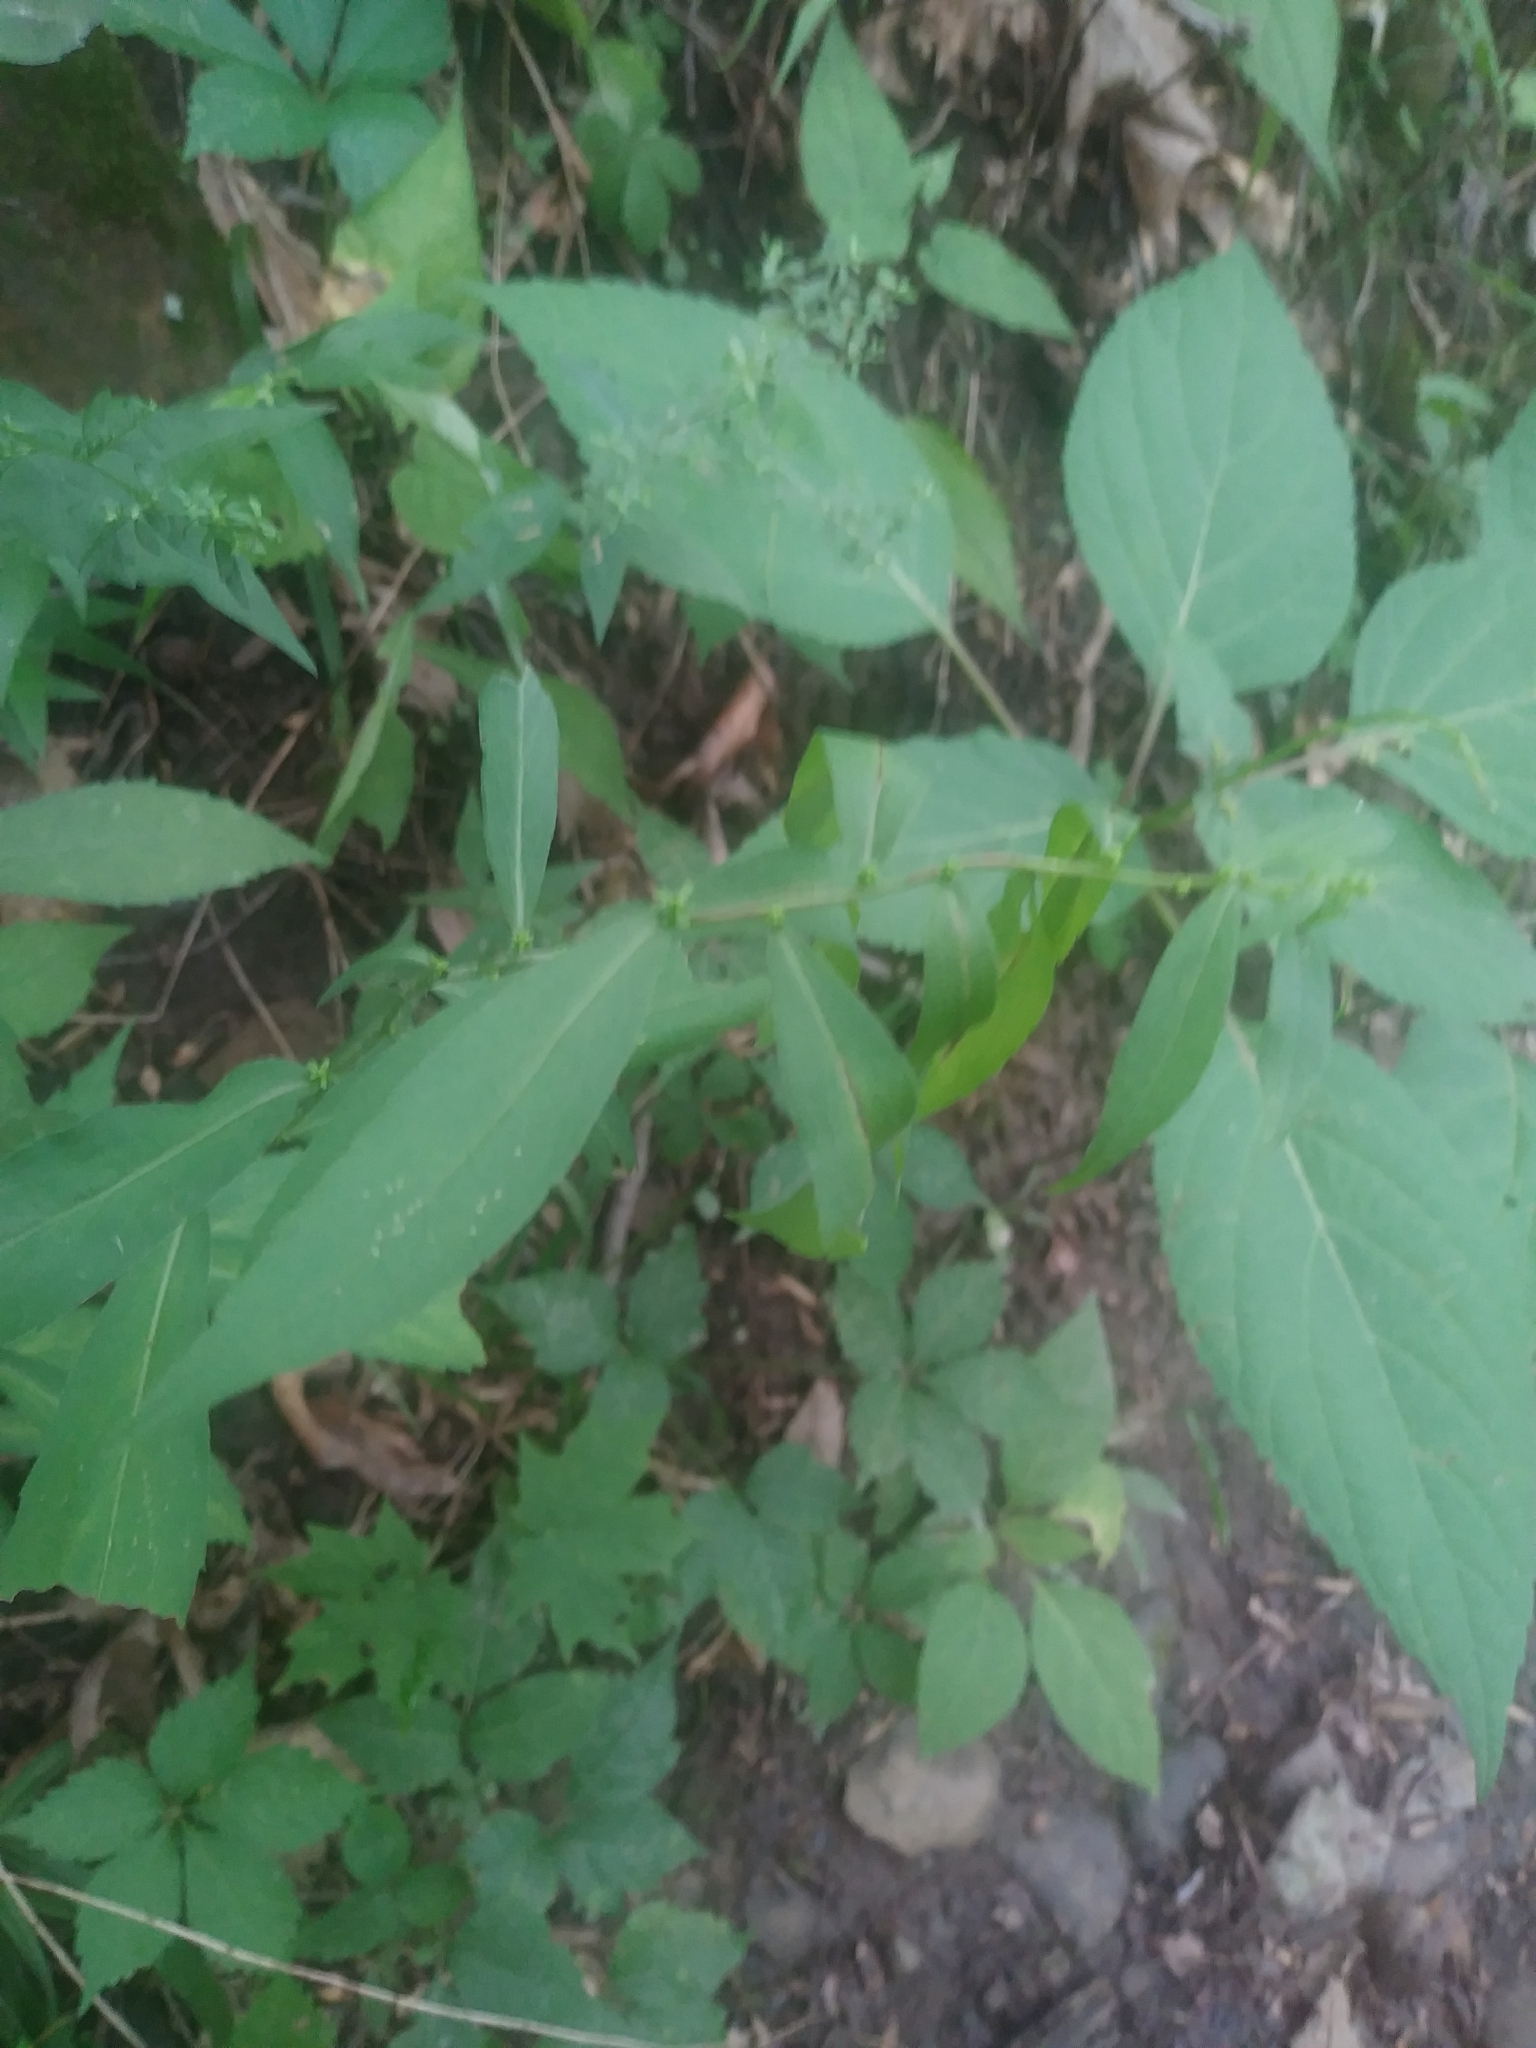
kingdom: Plantae
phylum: Tracheophyta
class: Magnoliopsida
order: Asterales
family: Asteraceae
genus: Solidago
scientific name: Solidago caesia
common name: Woodland goldenrod
